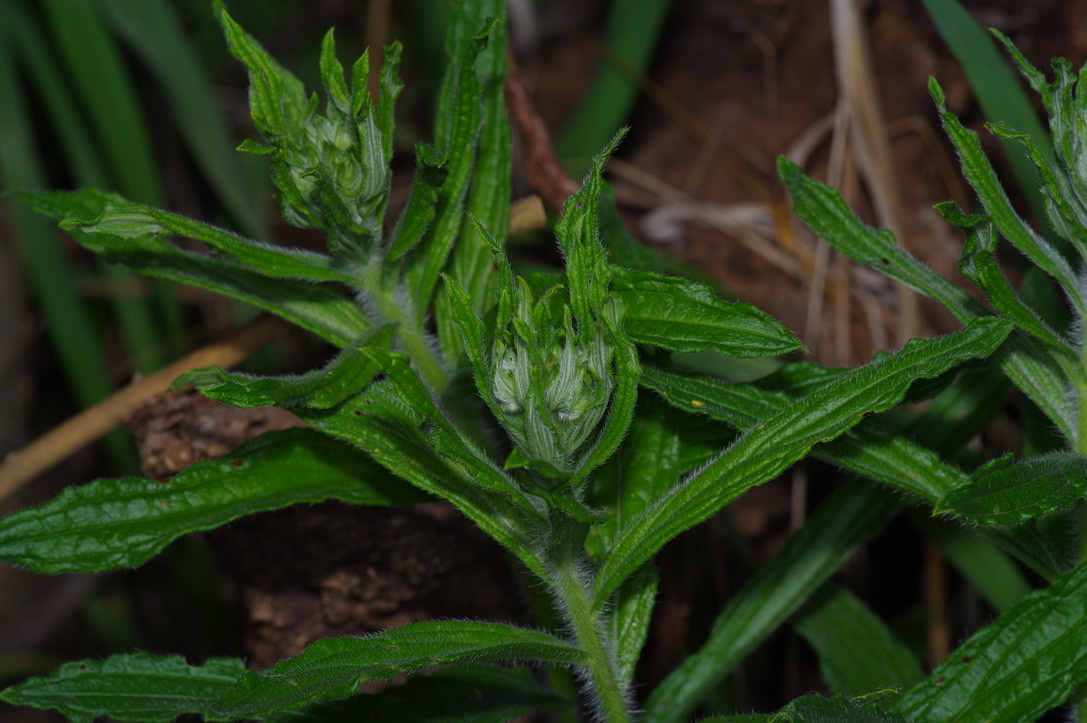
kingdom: Plantae
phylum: Tracheophyta
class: Magnoliopsida
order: Boraginales
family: Boraginaceae
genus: Lithospermum
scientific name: Lithospermum caroliniense
